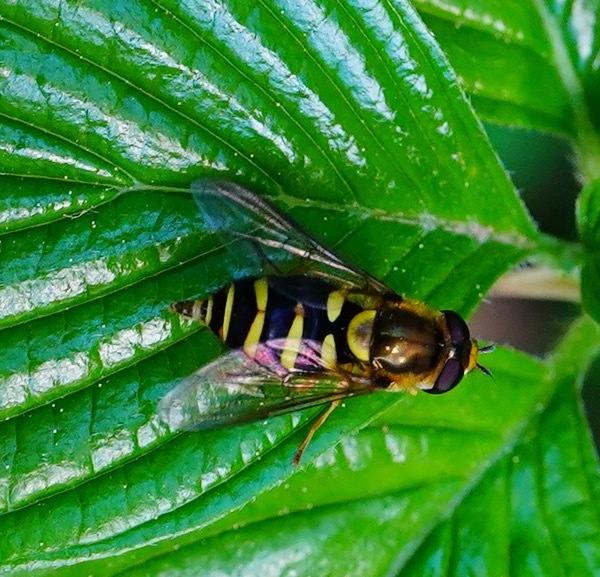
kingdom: Animalia
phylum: Arthropoda
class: Insecta
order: Diptera
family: Syrphidae
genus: Syrphus
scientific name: Syrphus opinator
